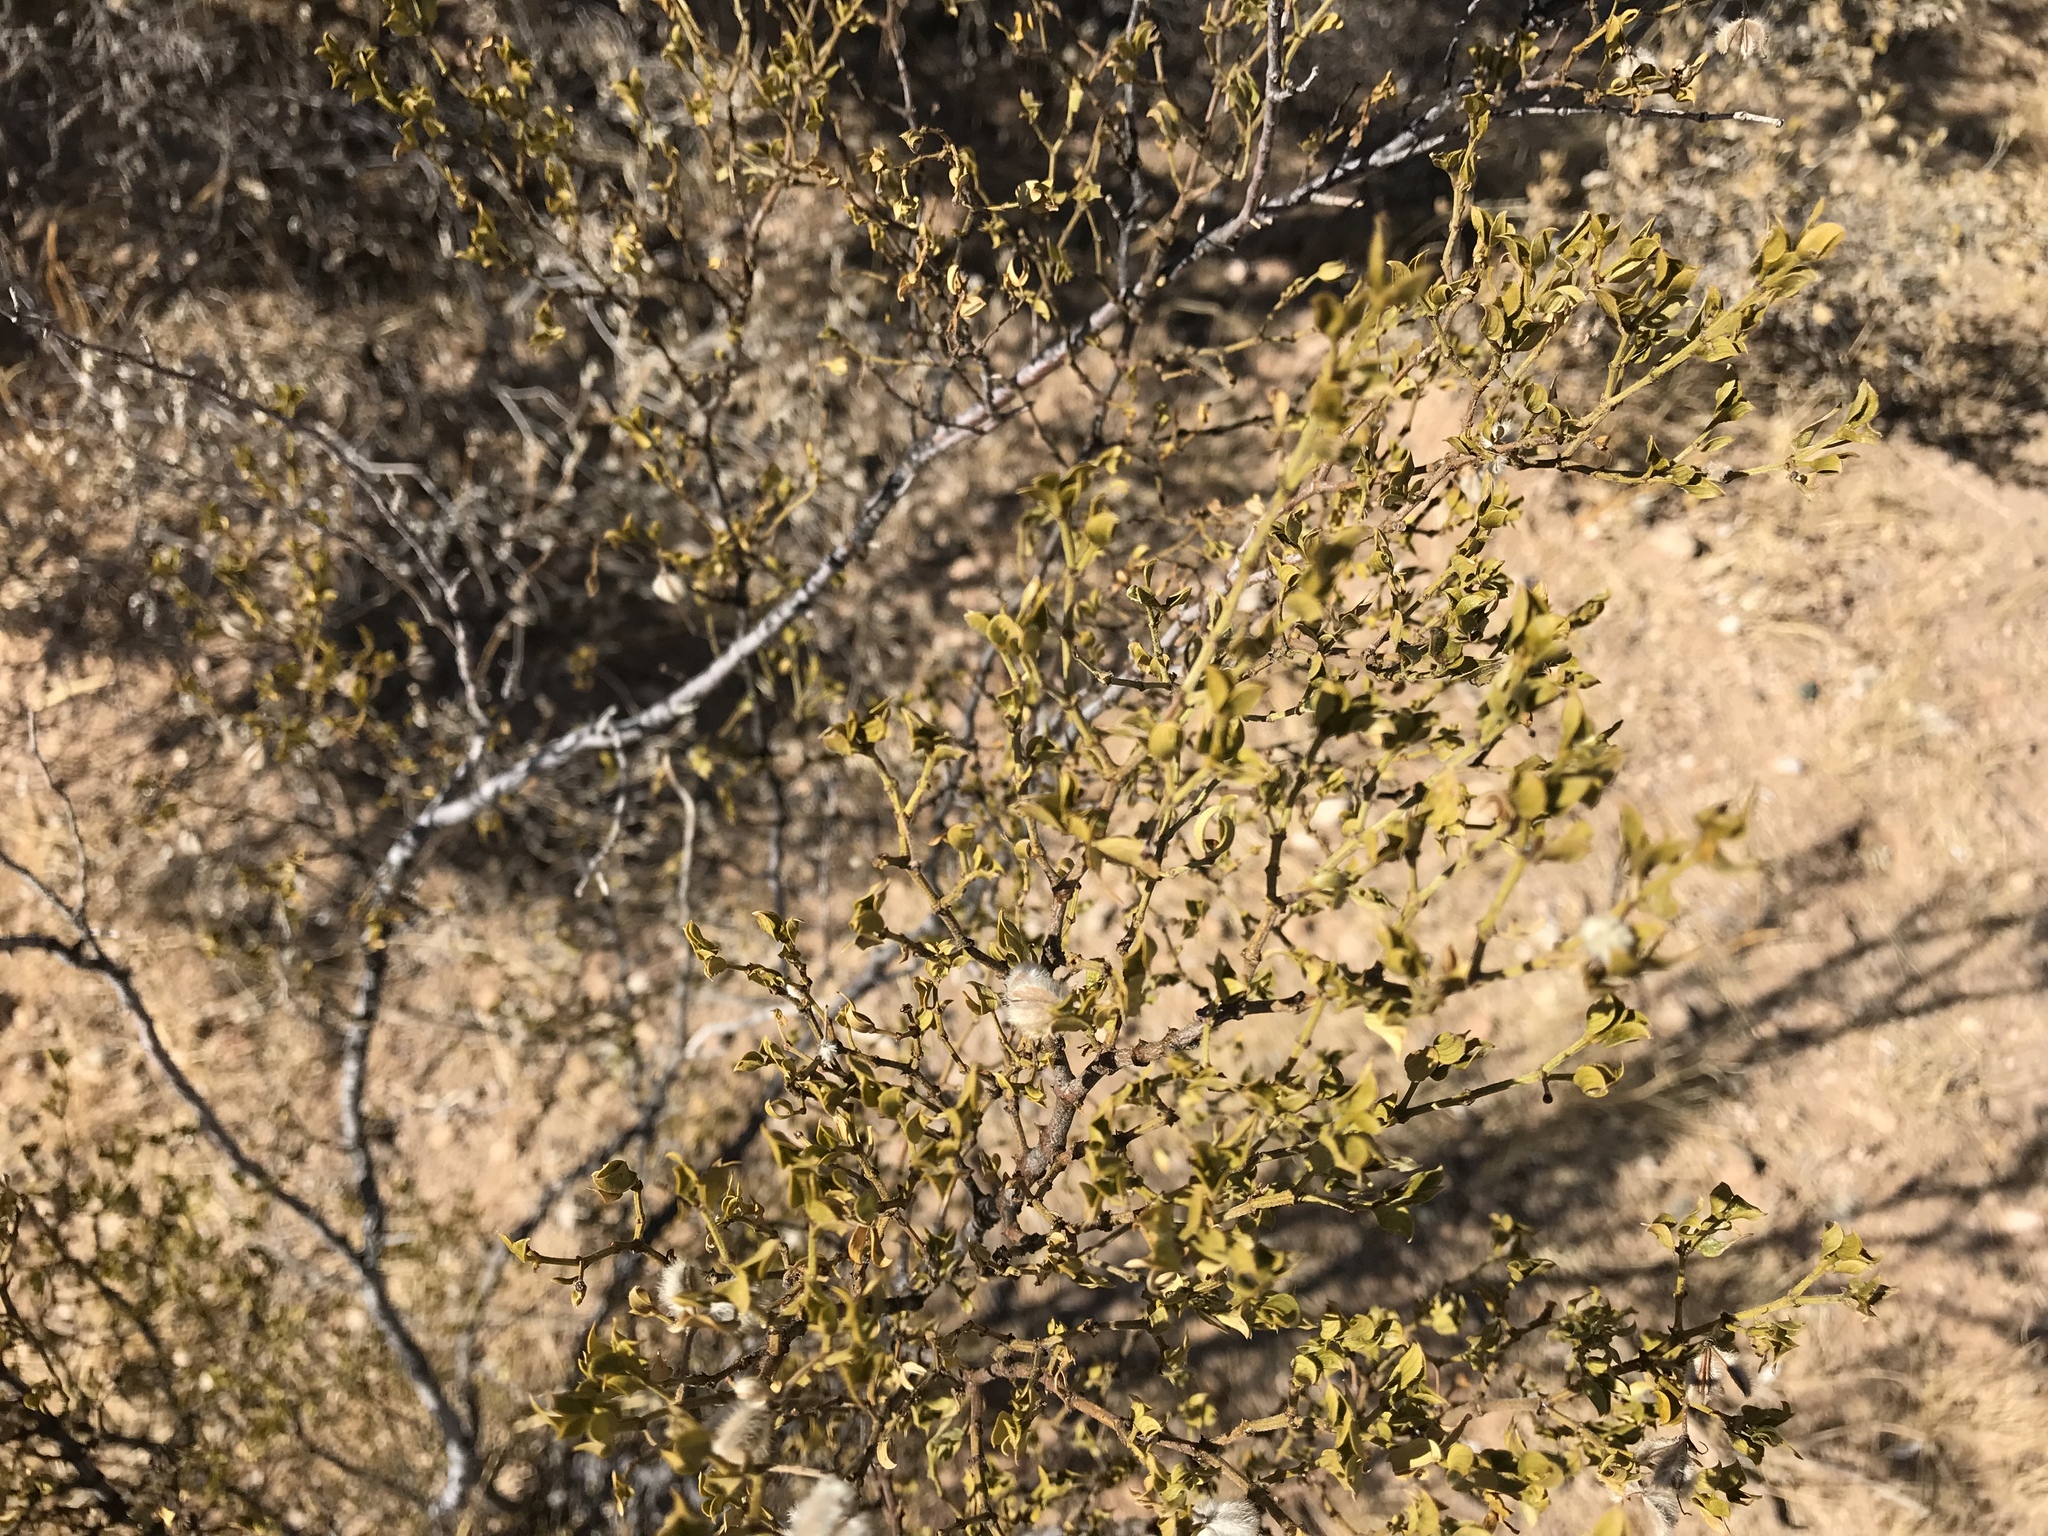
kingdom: Plantae
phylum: Tracheophyta
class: Magnoliopsida
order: Zygophyllales
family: Zygophyllaceae
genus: Larrea
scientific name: Larrea tridentata
